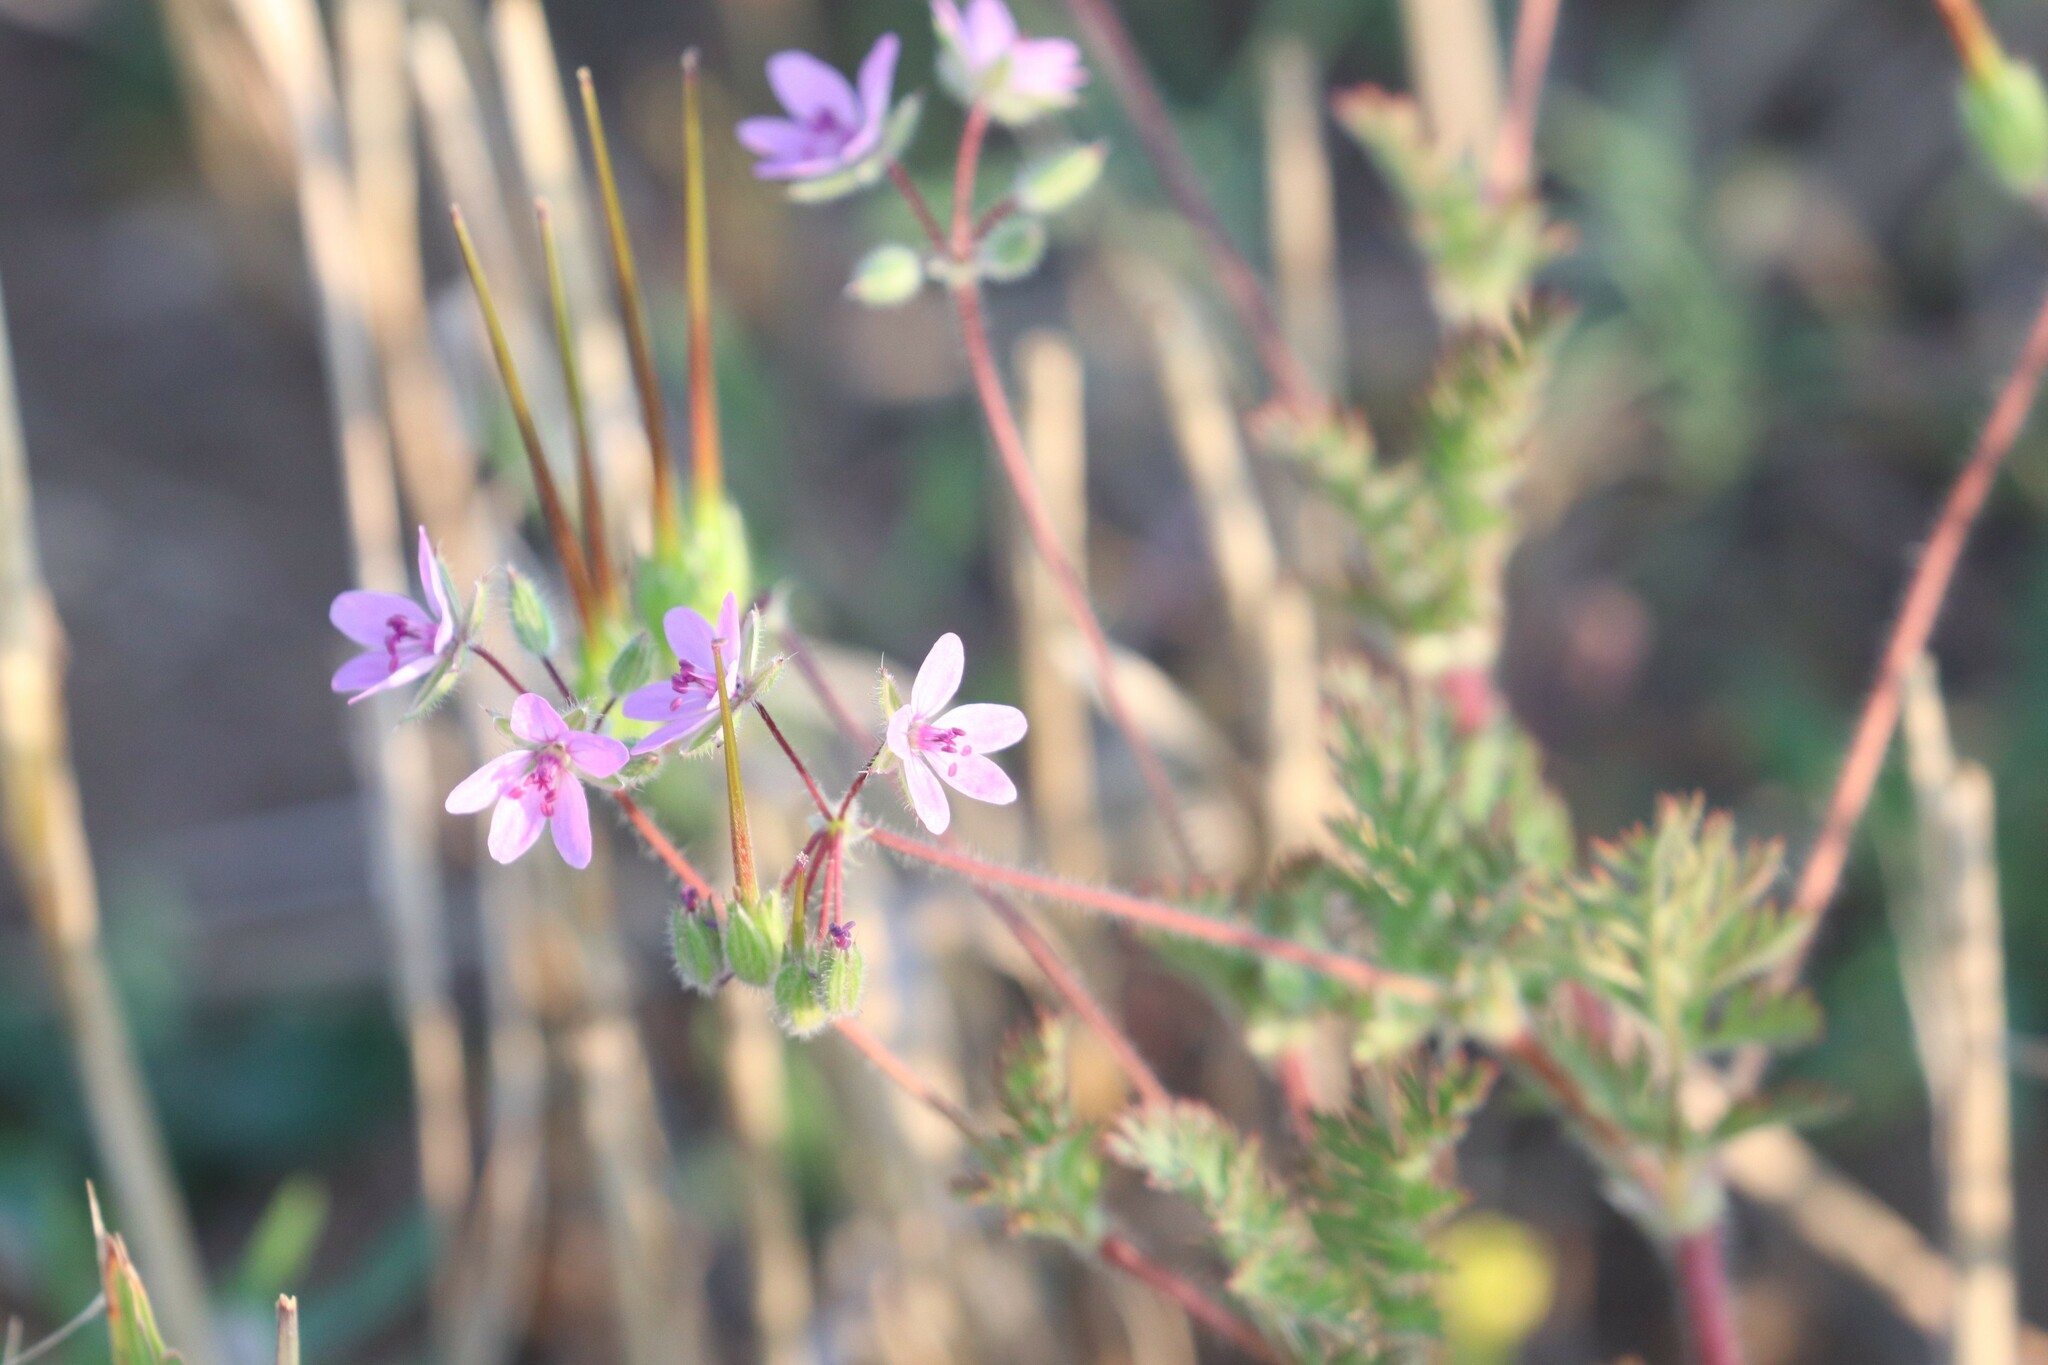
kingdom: Plantae
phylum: Tracheophyta
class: Magnoliopsida
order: Geraniales
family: Geraniaceae
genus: Erodium
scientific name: Erodium cicutarium
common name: Common stork's-bill
